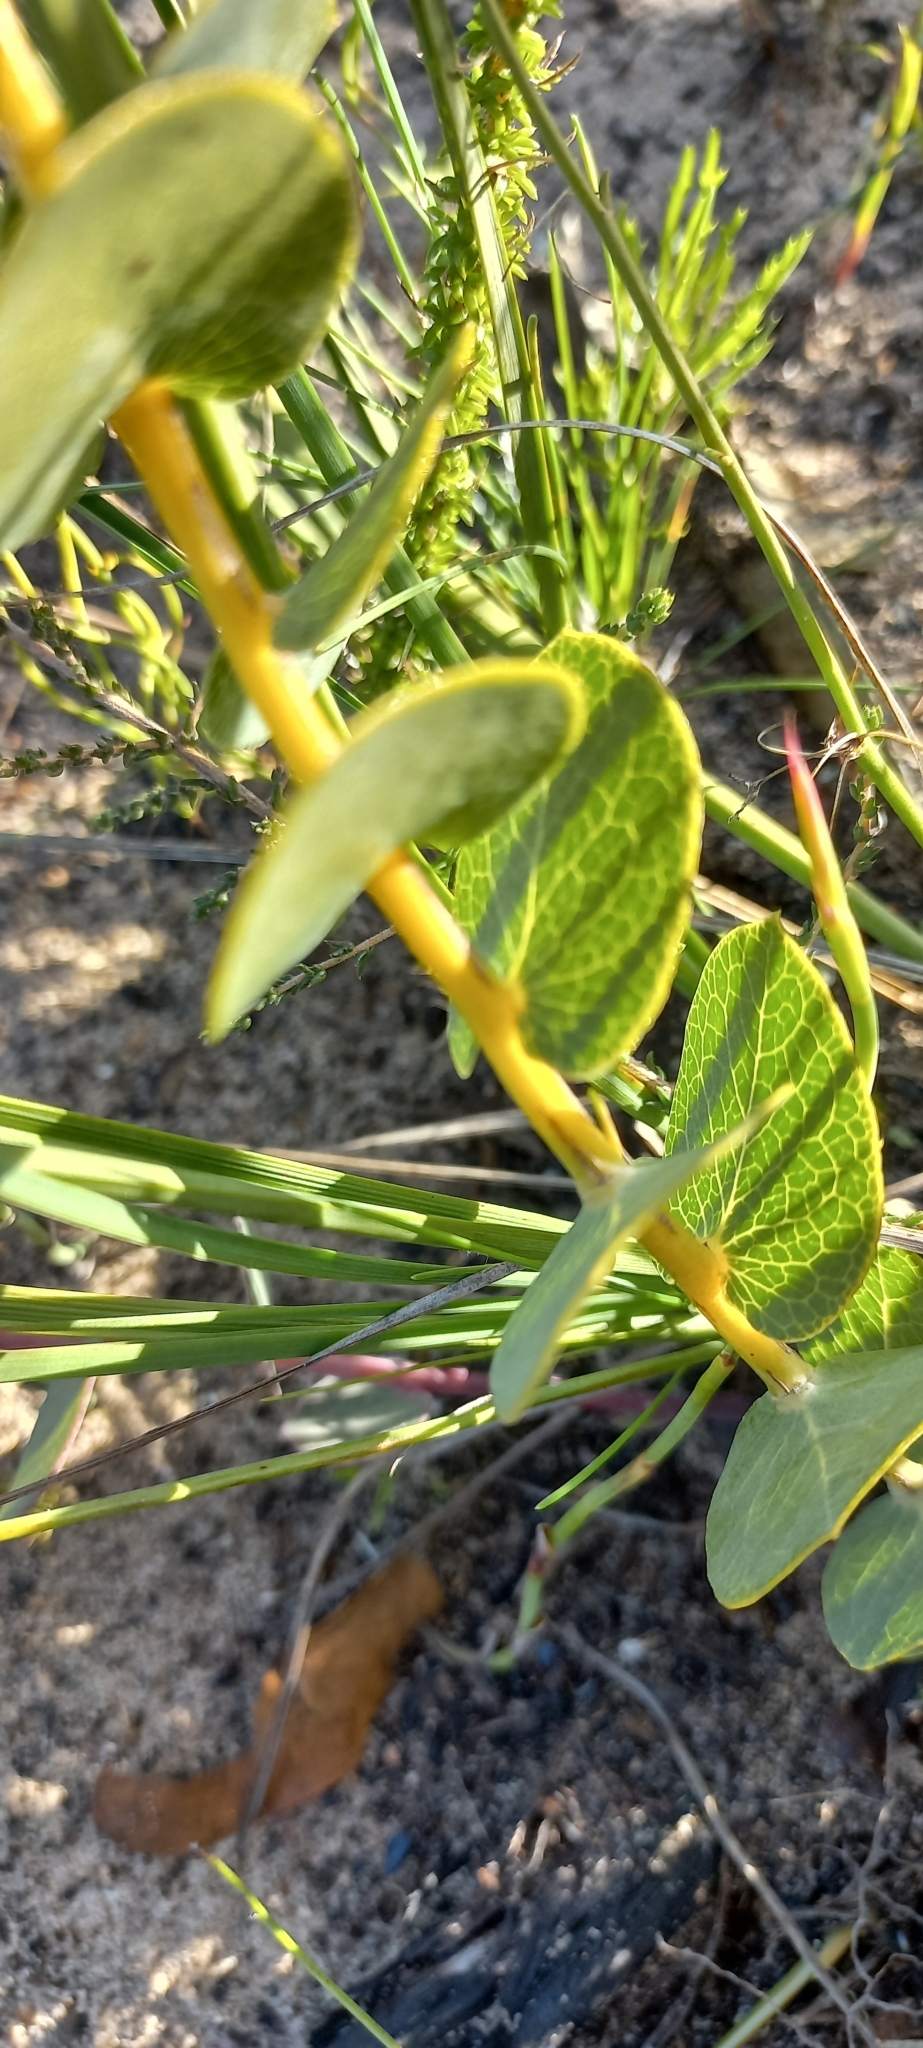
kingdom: Plantae
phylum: Tracheophyta
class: Magnoliopsida
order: Fabales
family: Fabaceae
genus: Rafnia
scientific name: Rafnia acuminata
